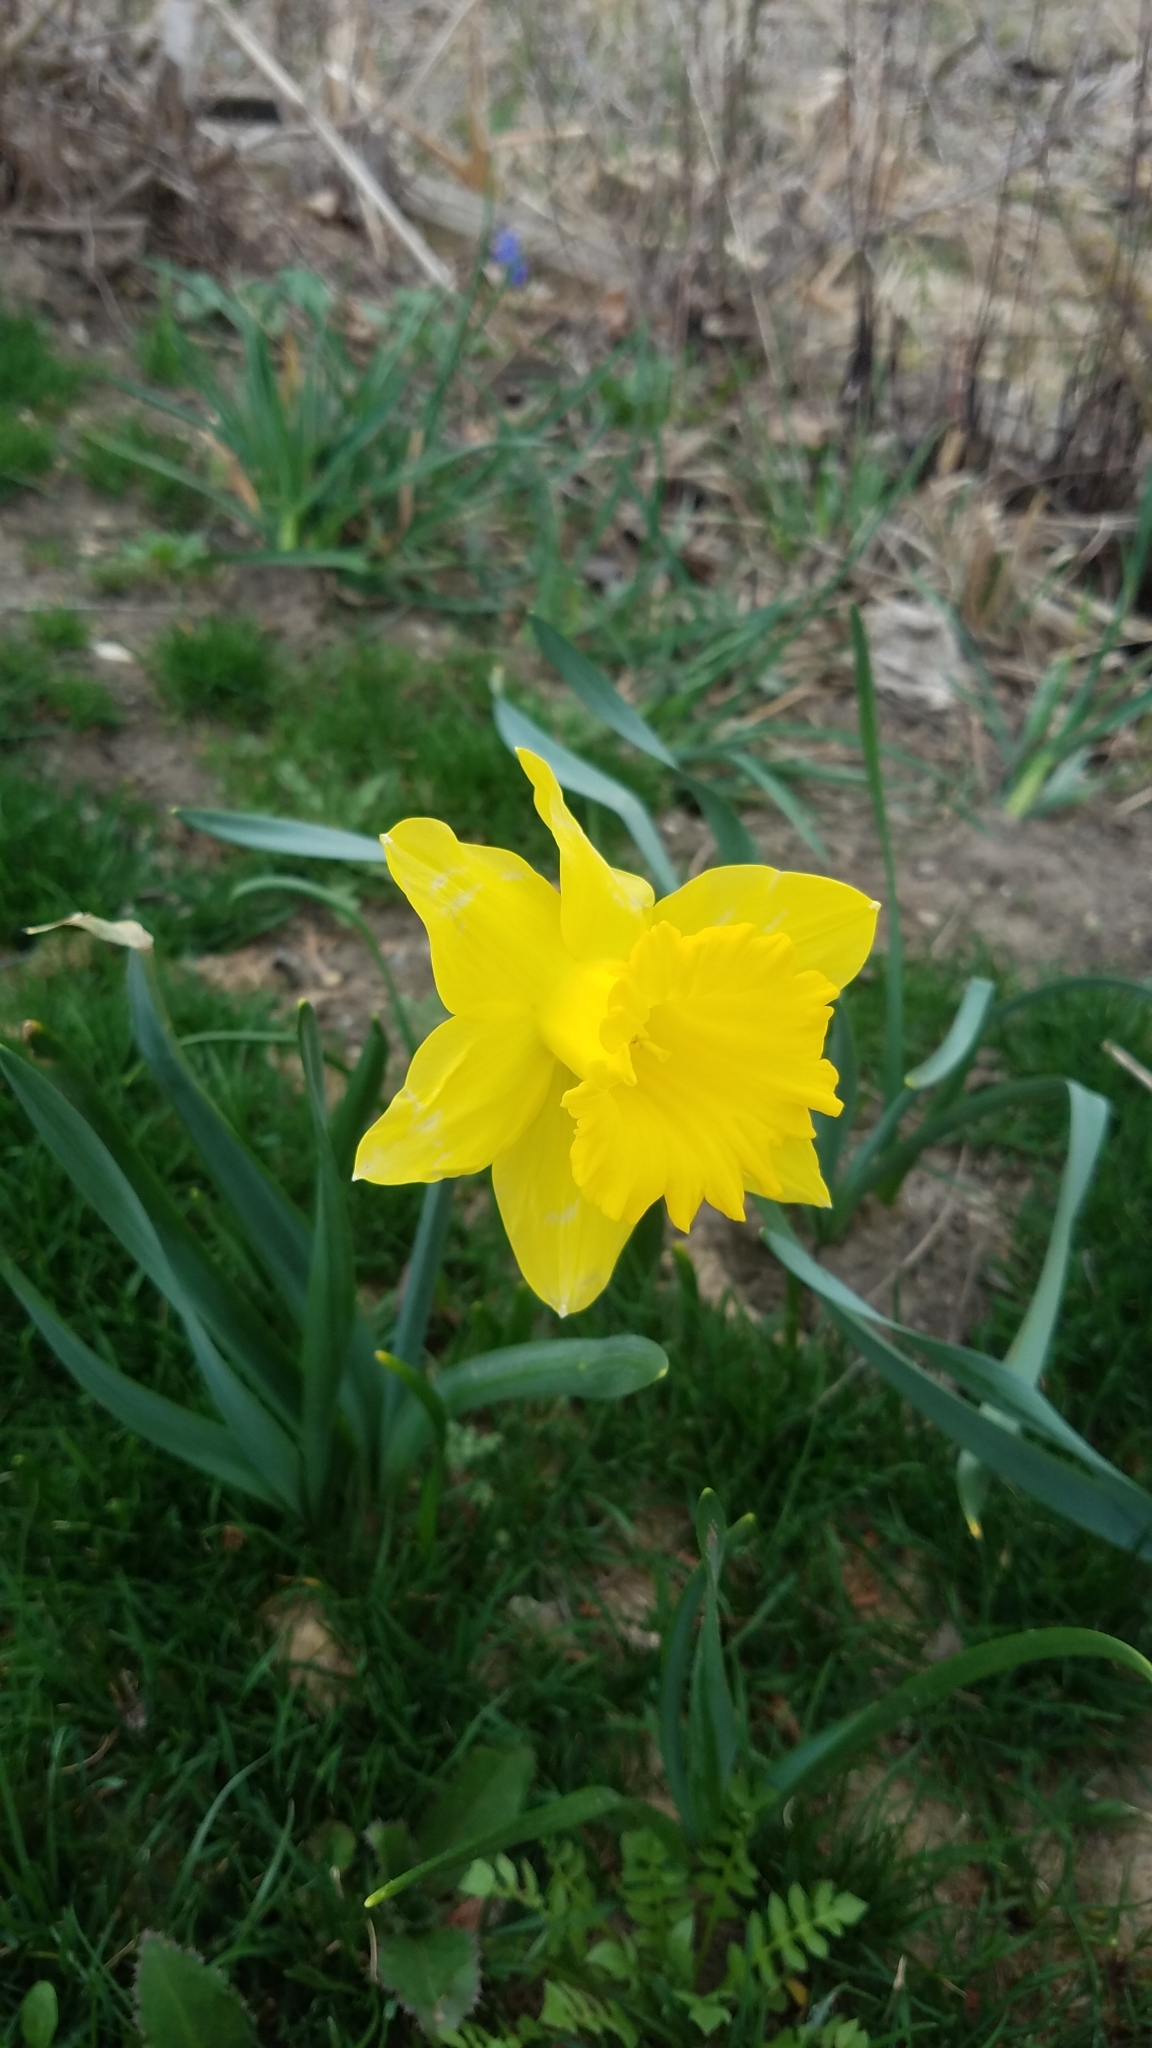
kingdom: Plantae
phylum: Tracheophyta
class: Liliopsida
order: Asparagales
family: Amaryllidaceae
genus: Narcissus
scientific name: Narcissus pseudonarcissus
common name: Daffodil
